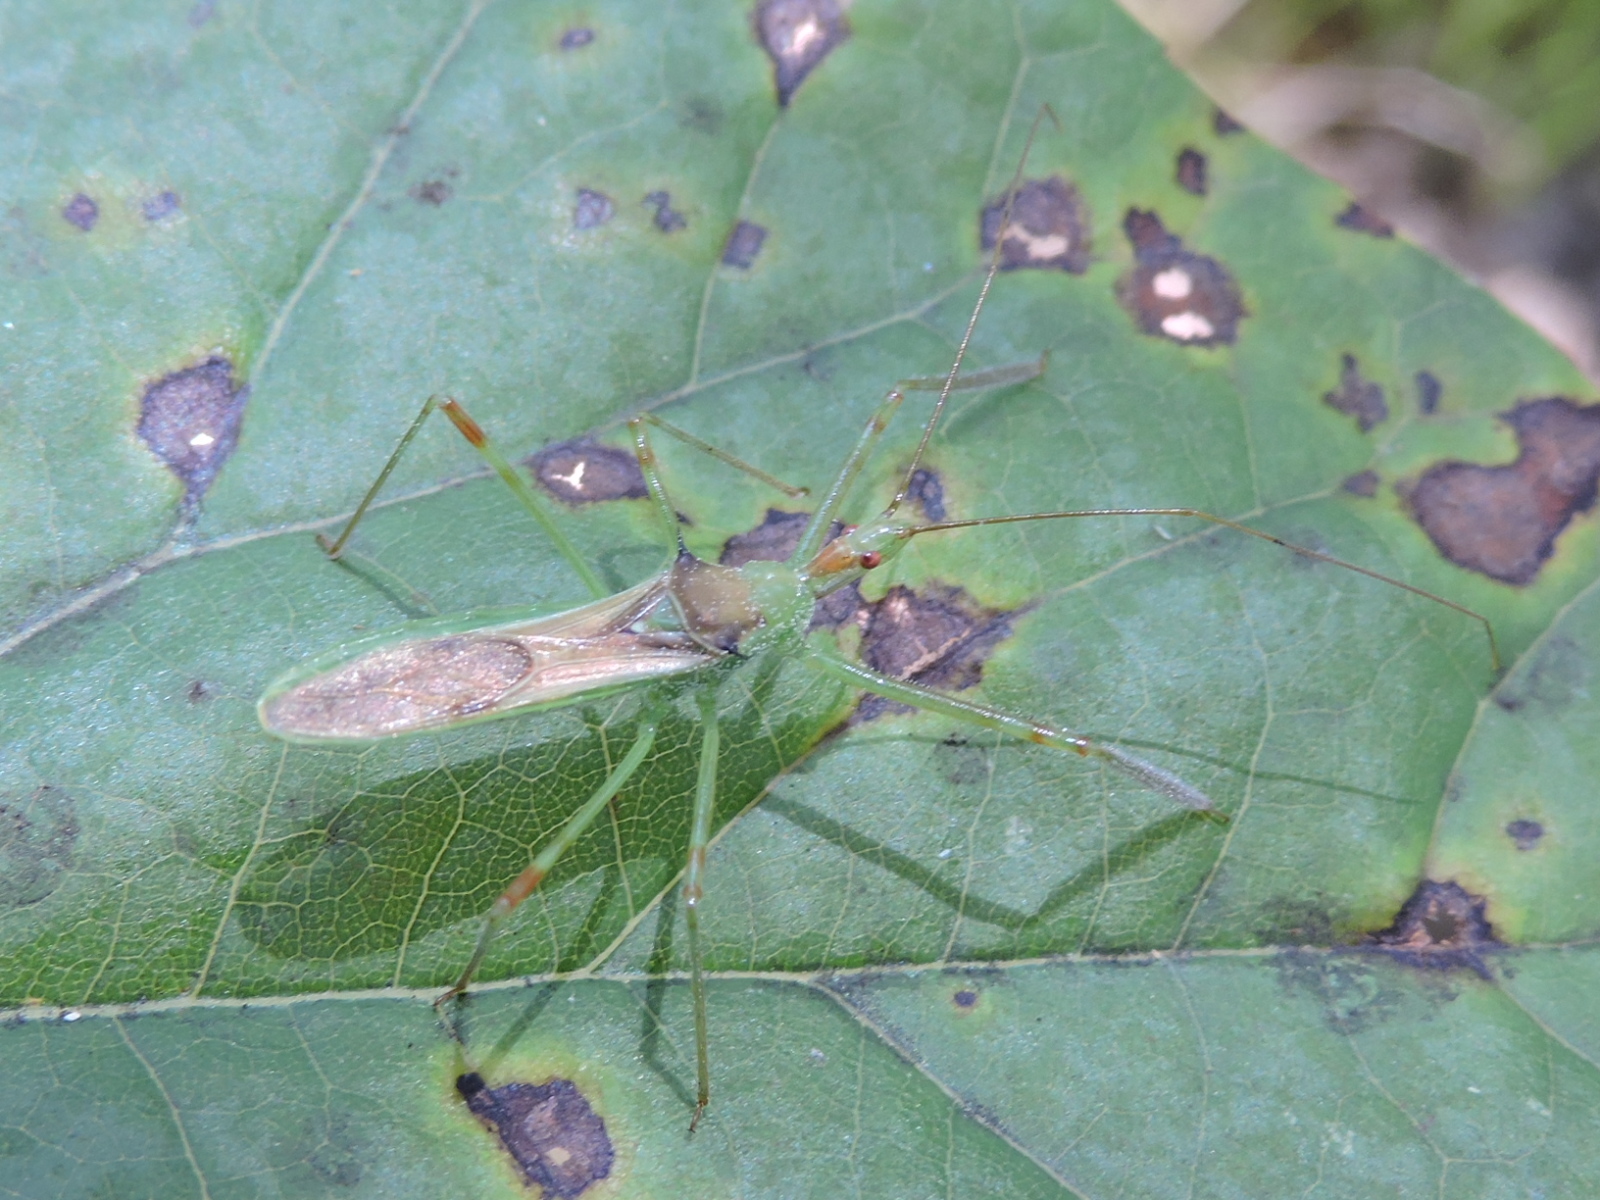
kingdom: Animalia
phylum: Arthropoda
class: Insecta
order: Hemiptera
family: Reduviidae
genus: Zelus
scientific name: Zelus luridus
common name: Pale green assassin bug
